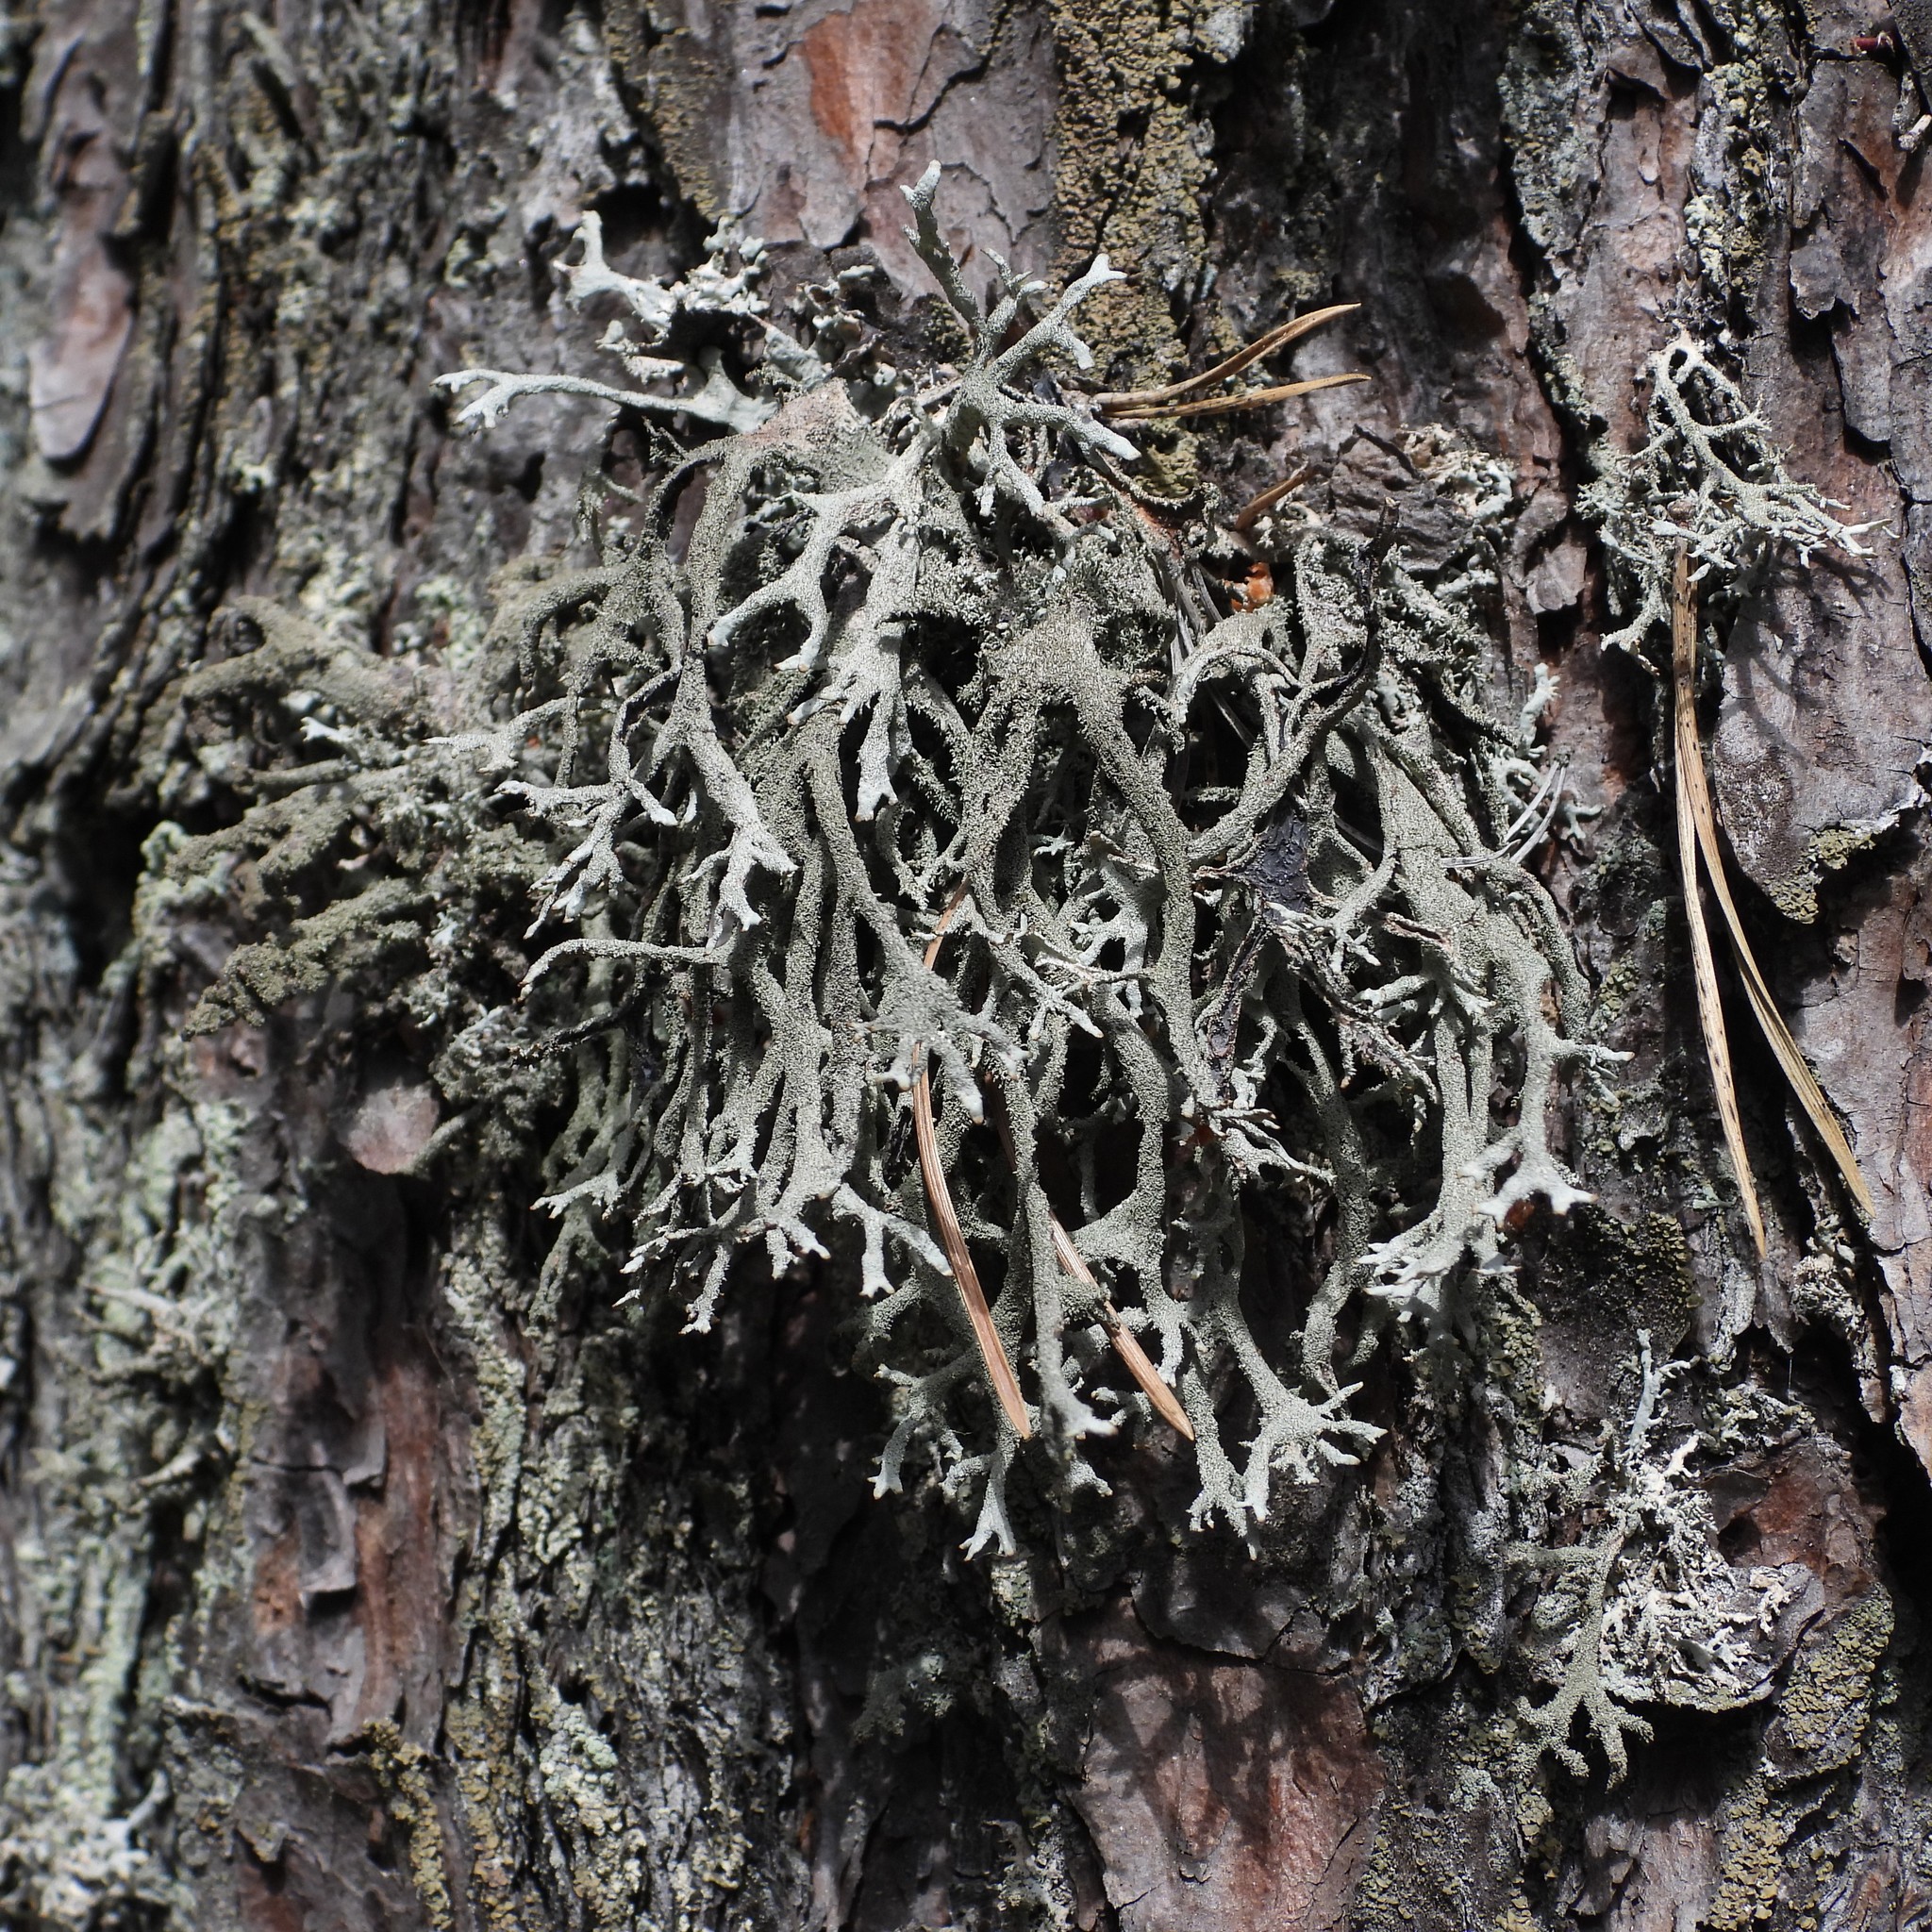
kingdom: Fungi
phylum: Ascomycota
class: Lecanoromycetes
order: Lecanorales
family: Parmeliaceae
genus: Pseudevernia
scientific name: Pseudevernia furfuracea
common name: Tree moss
